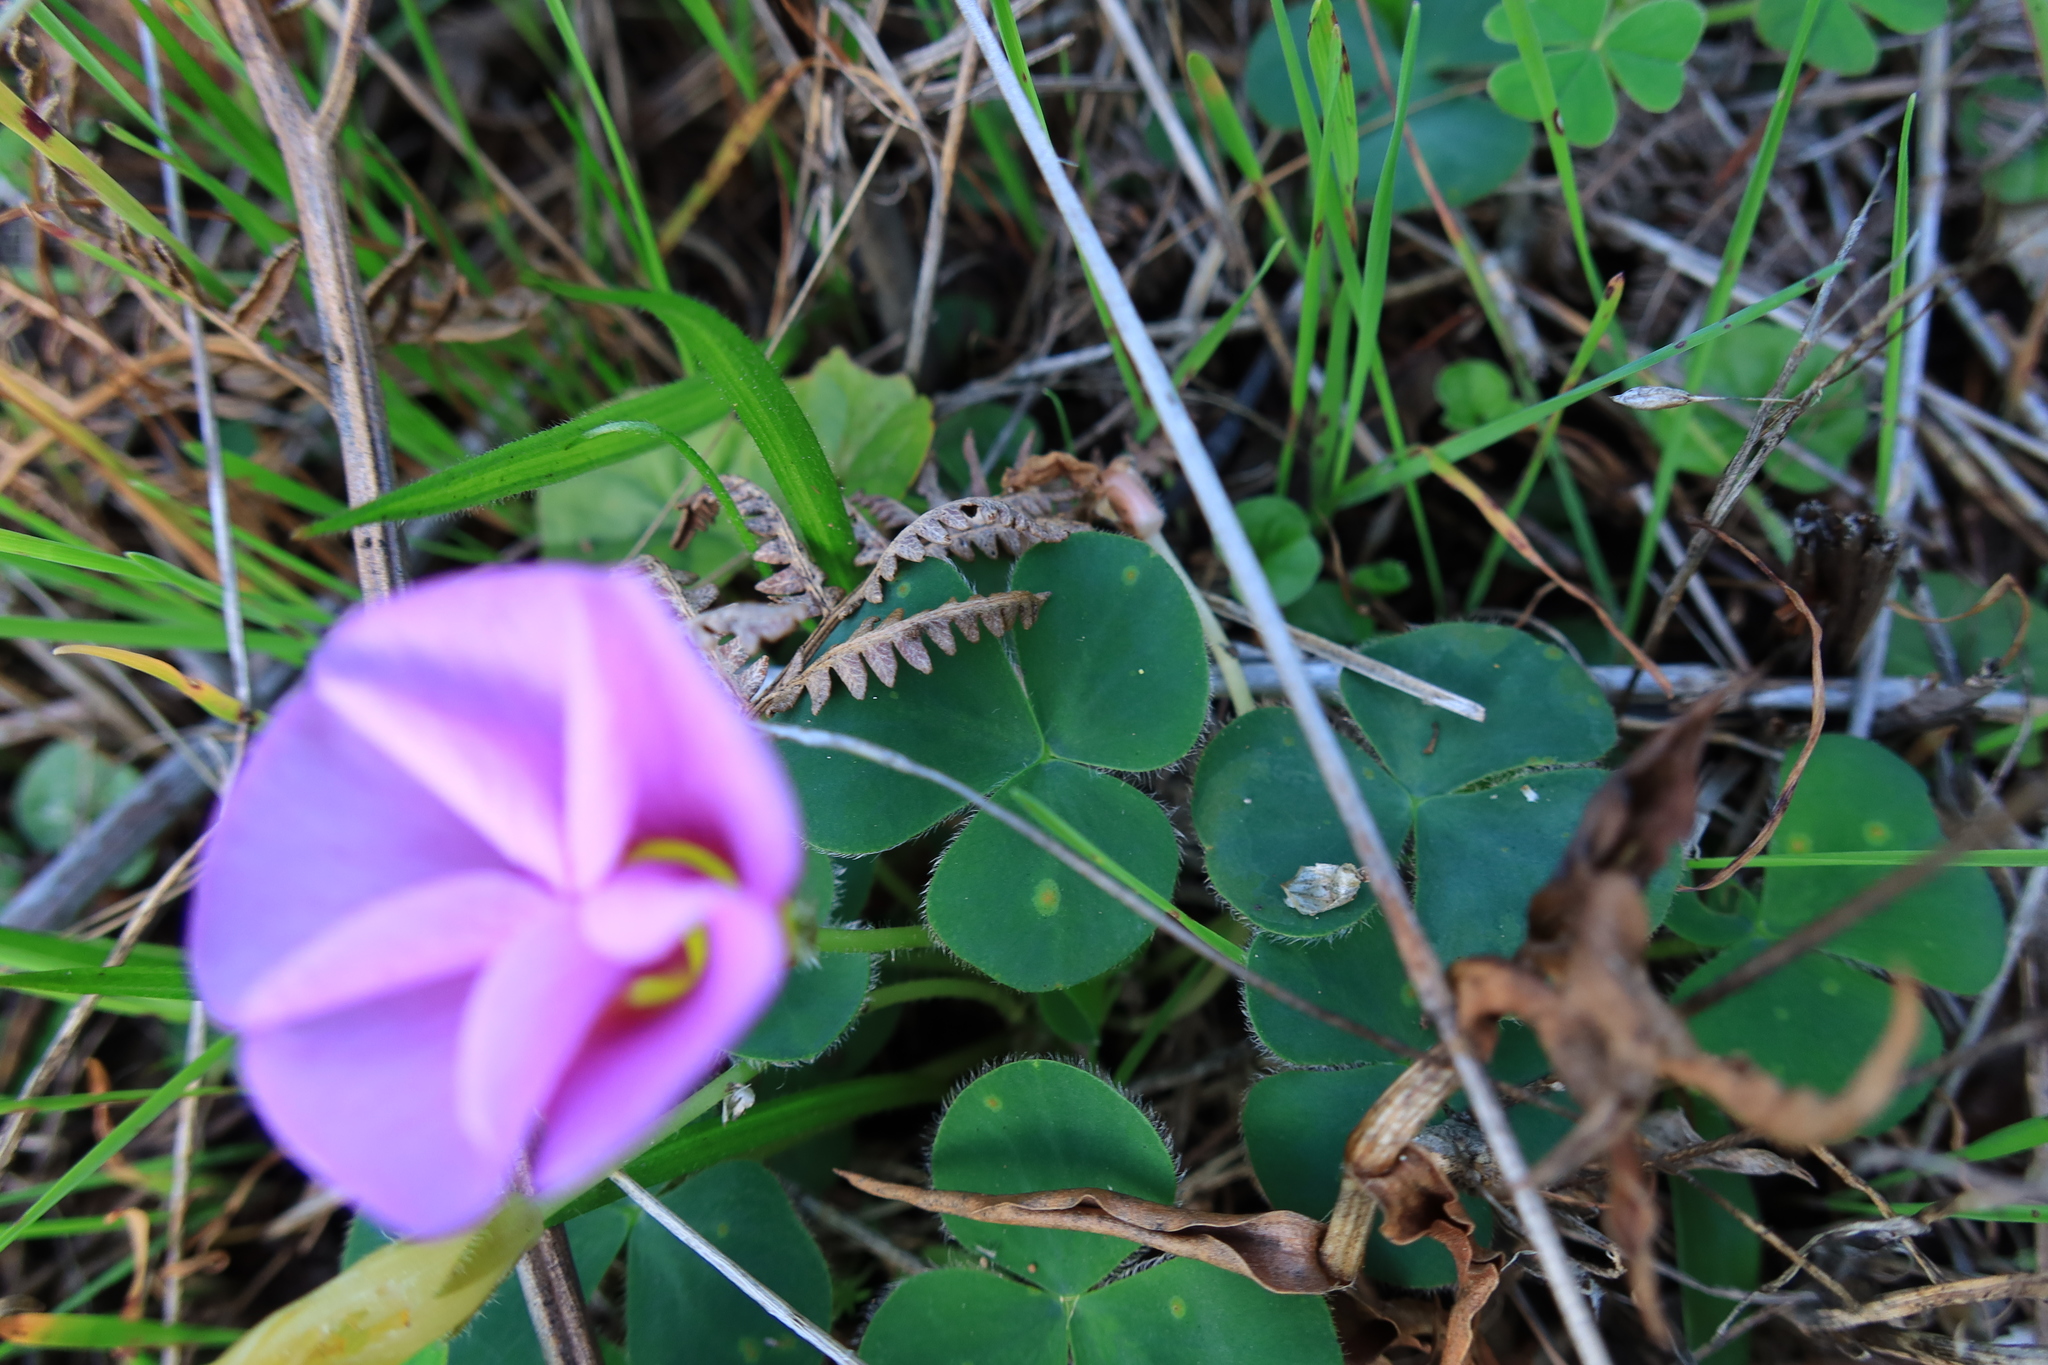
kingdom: Plantae
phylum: Tracheophyta
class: Magnoliopsida
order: Oxalidales
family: Oxalidaceae
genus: Oxalis
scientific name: Oxalis purpurea
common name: Purple woodsorrel
